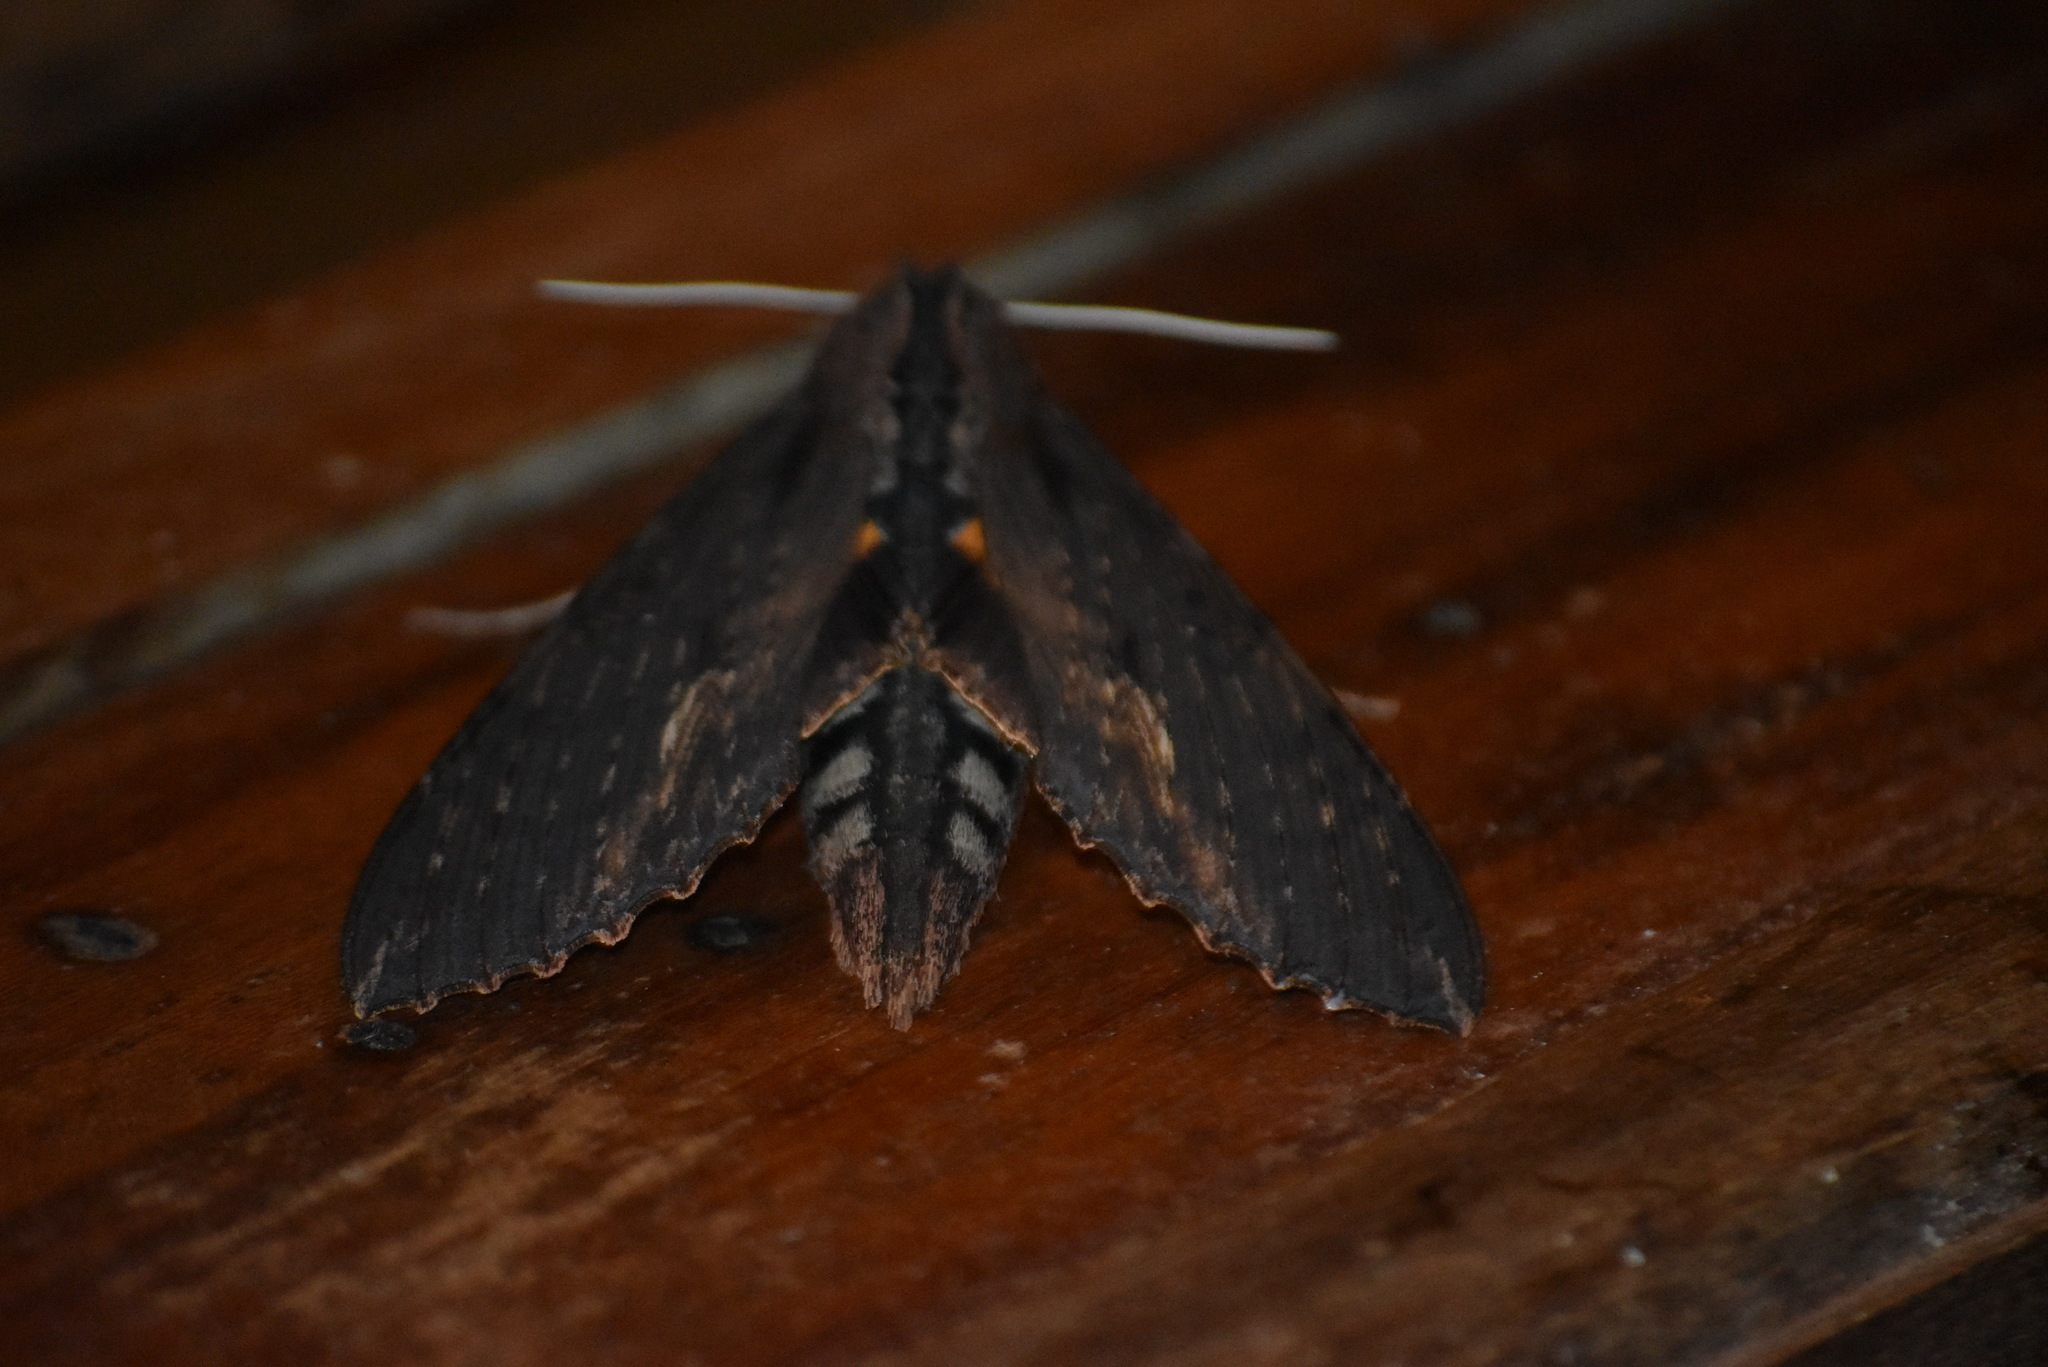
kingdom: Animalia
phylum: Arthropoda
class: Insecta
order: Lepidoptera
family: Sphingidae
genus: Erinnyis
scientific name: Erinnyis alope
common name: Alope sphinx
